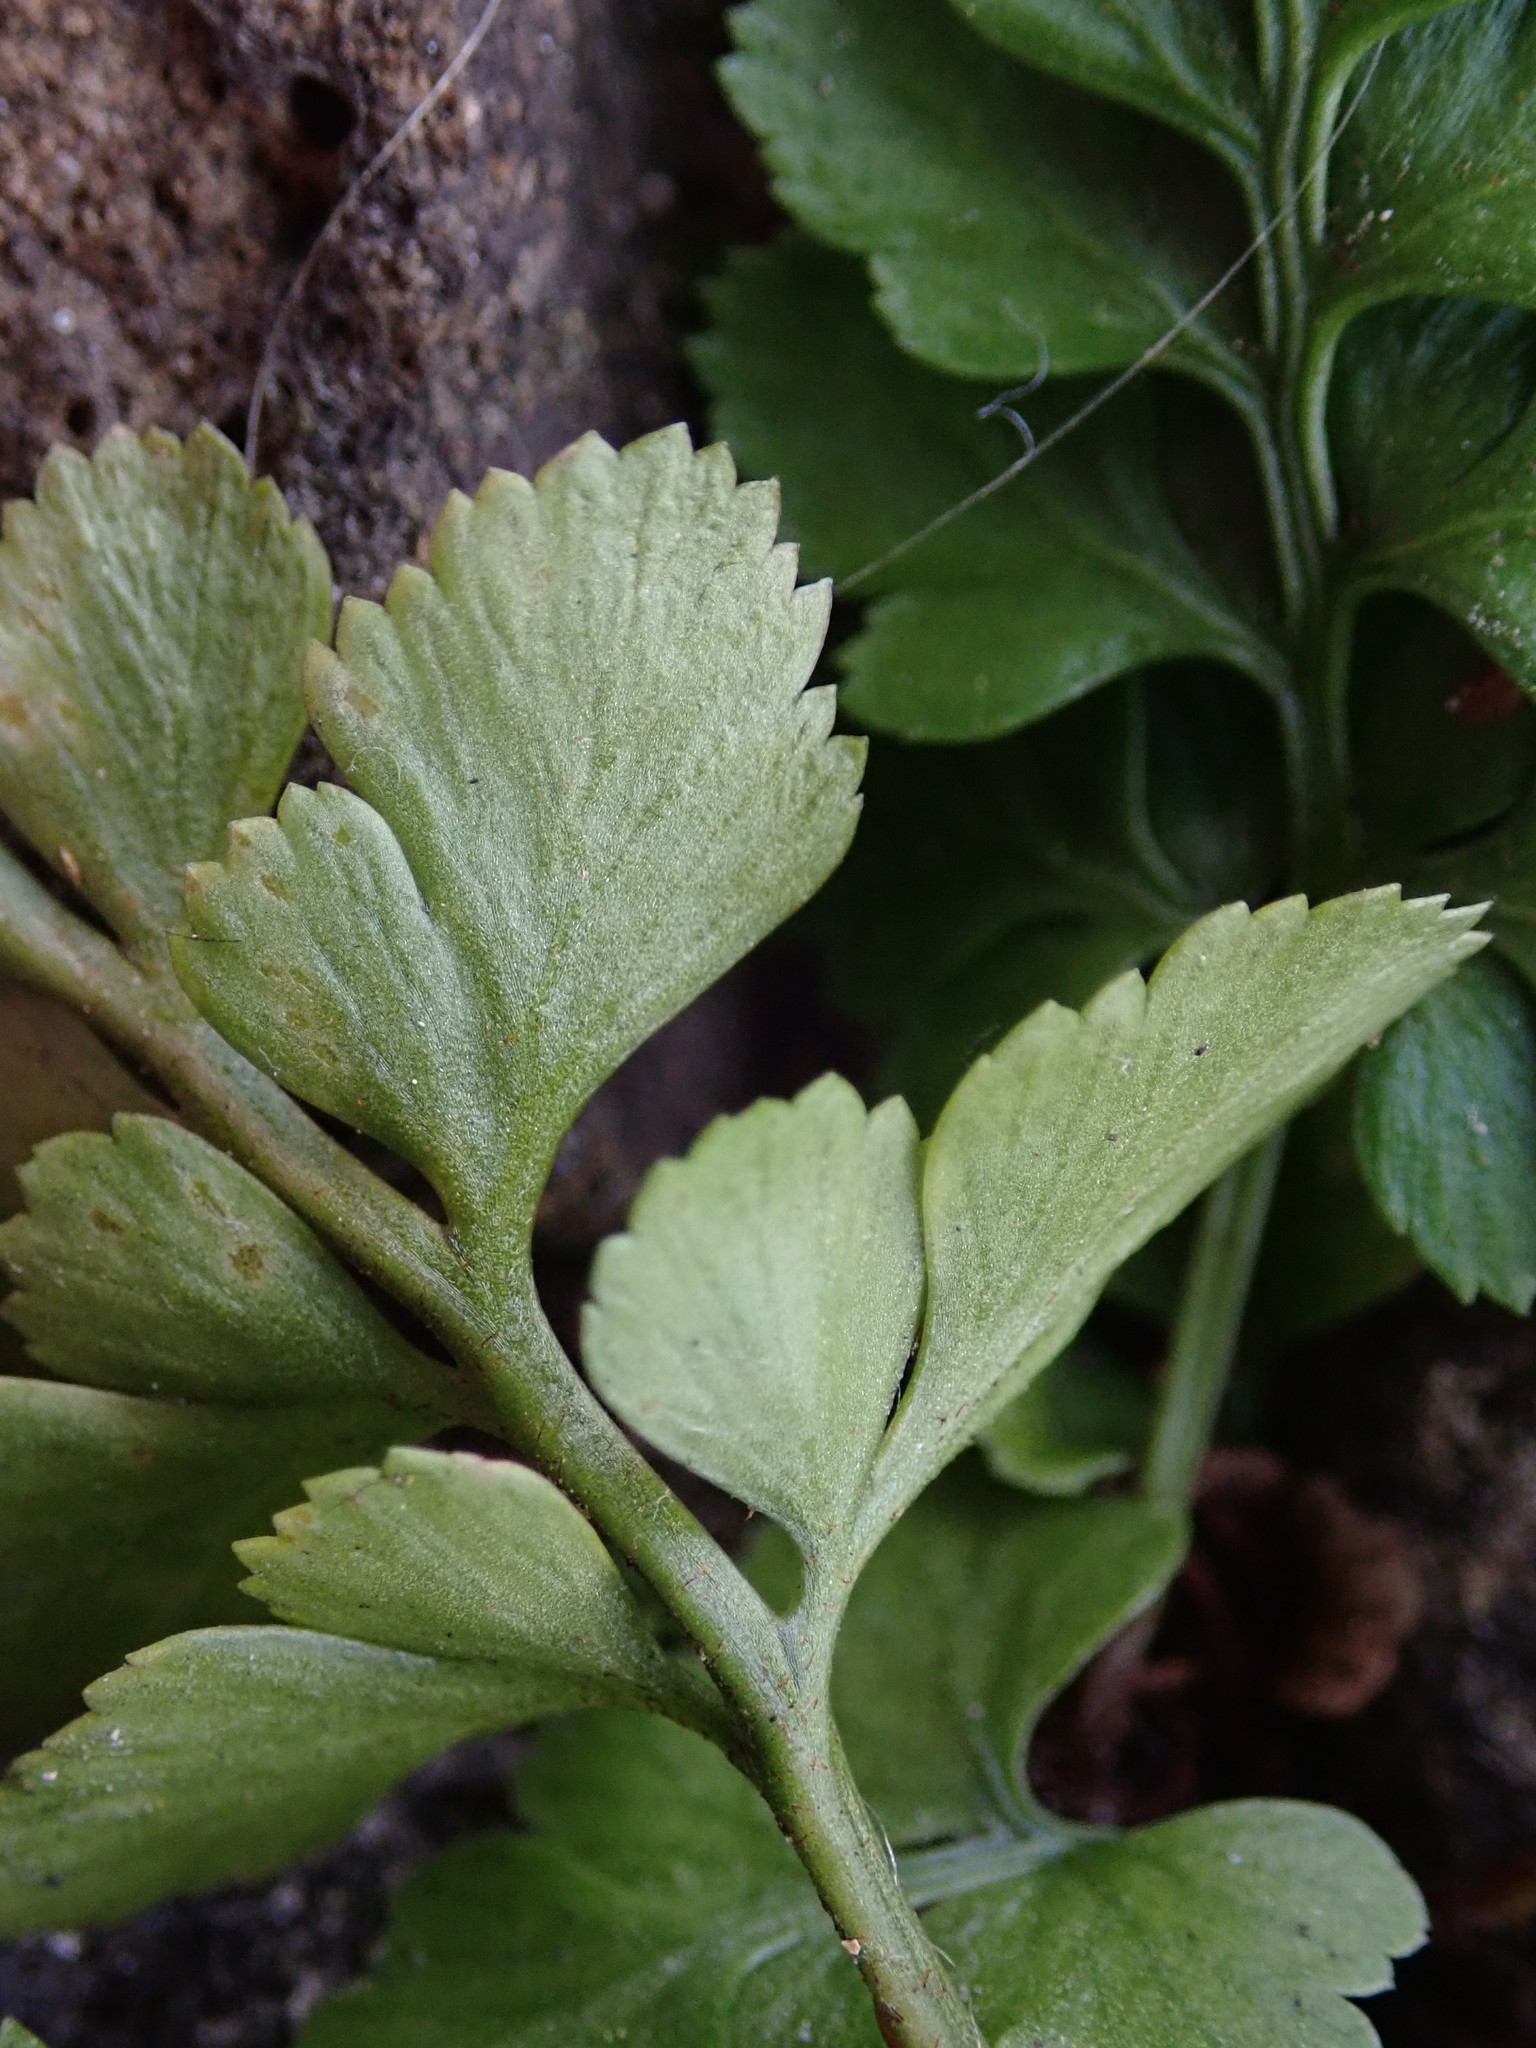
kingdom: Plantae
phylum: Tracheophyta
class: Polypodiopsida
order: Polypodiales
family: Aspleniaceae
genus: Asplenium
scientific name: Asplenium adiantum-nigrum
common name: Black spleenwort
